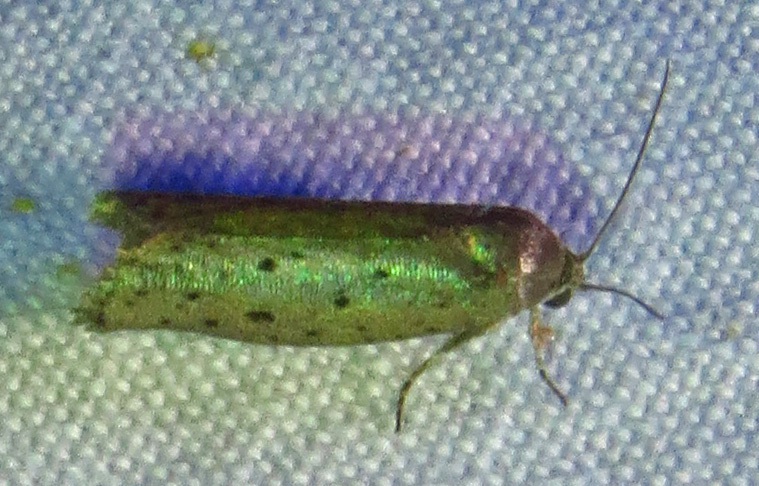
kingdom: Animalia
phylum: Arthropoda
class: Insecta
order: Lepidoptera
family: Galacticidae
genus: Homadaula
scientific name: Homadaula anisocentra
